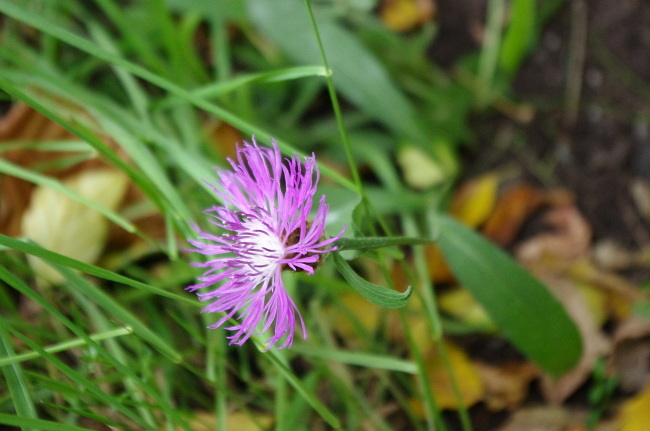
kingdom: Plantae
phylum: Tracheophyta
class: Magnoliopsida
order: Asterales
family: Asteraceae
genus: Centaurea
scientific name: Centaurea jacea
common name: Brown knapweed
